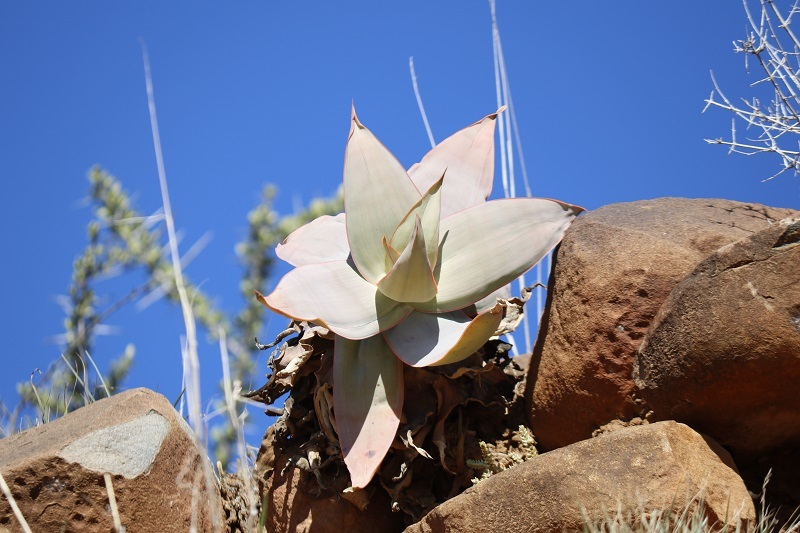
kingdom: Plantae
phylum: Tracheophyta
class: Liliopsida
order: Asparagales
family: Asphodelaceae
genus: Aloe
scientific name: Aloe striata
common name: Coral aloe
